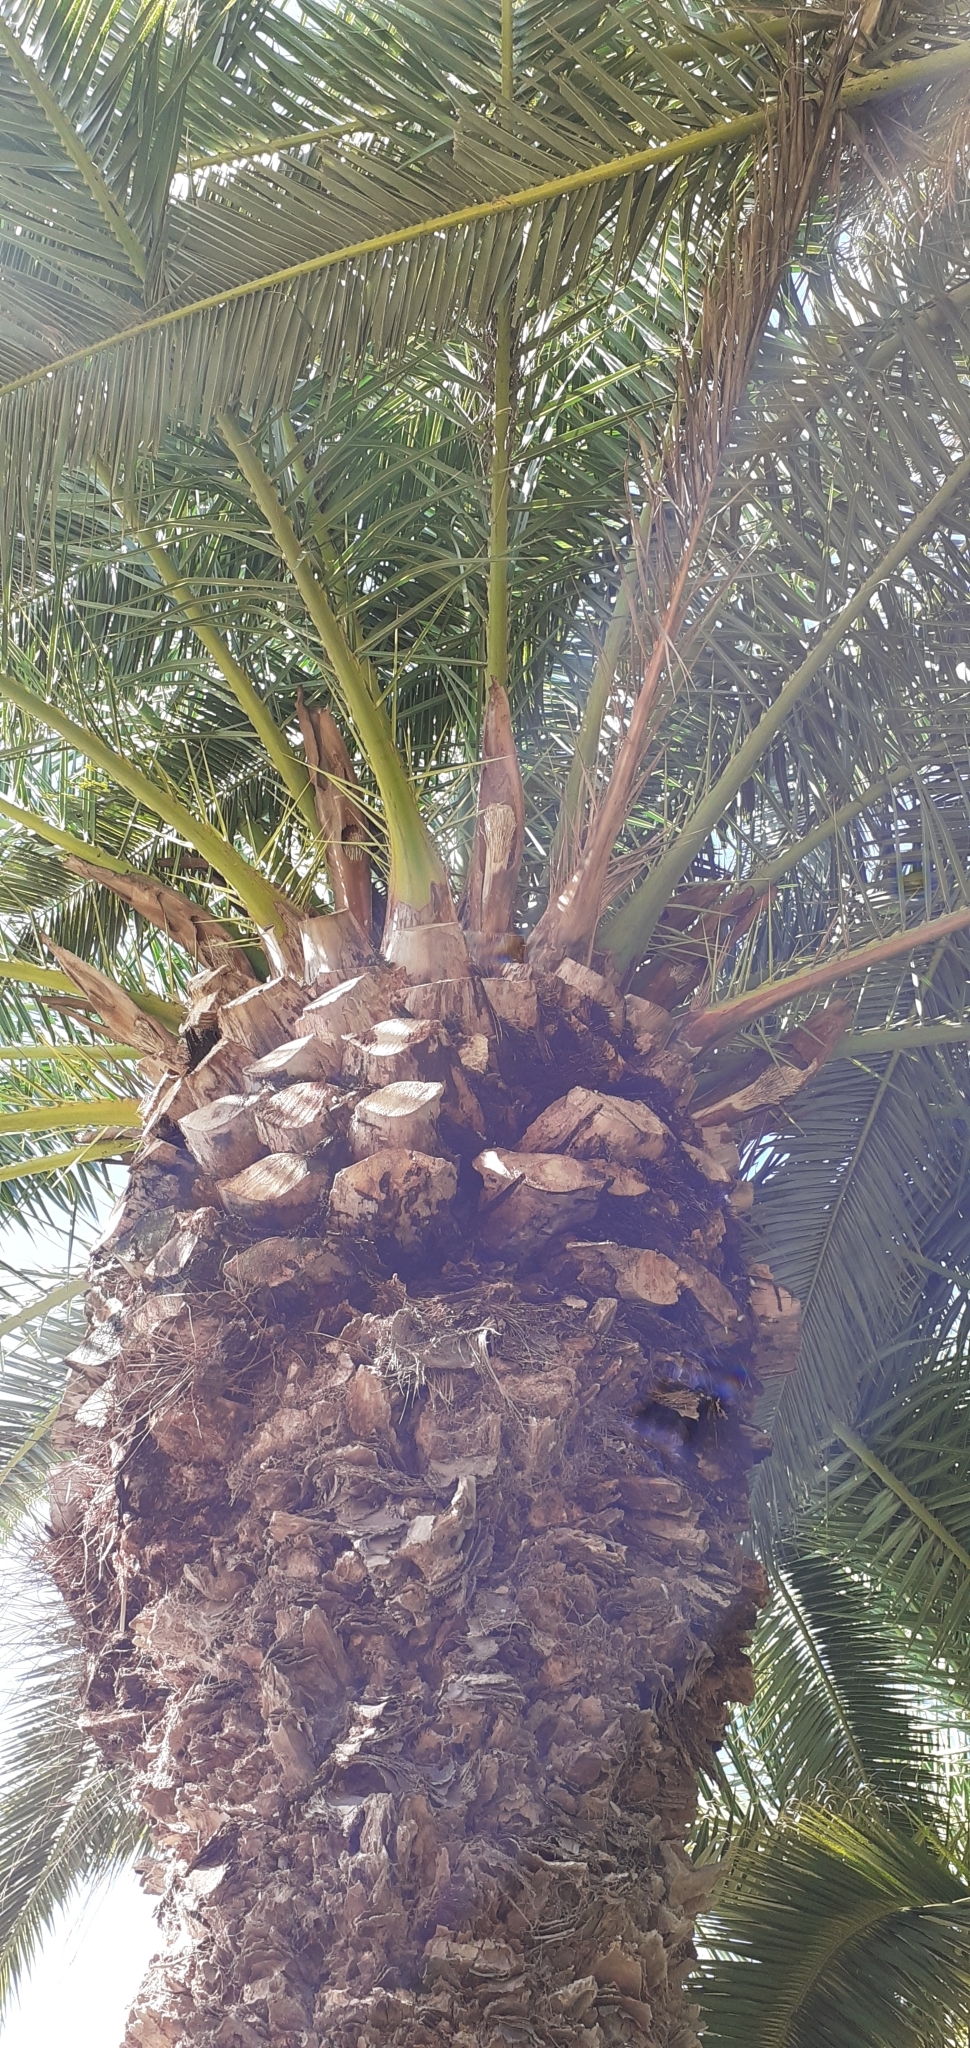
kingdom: Plantae
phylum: Tracheophyta
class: Liliopsida
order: Arecales
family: Arecaceae
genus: Phoenix
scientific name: Phoenix canariensis
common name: Canary island date palm
